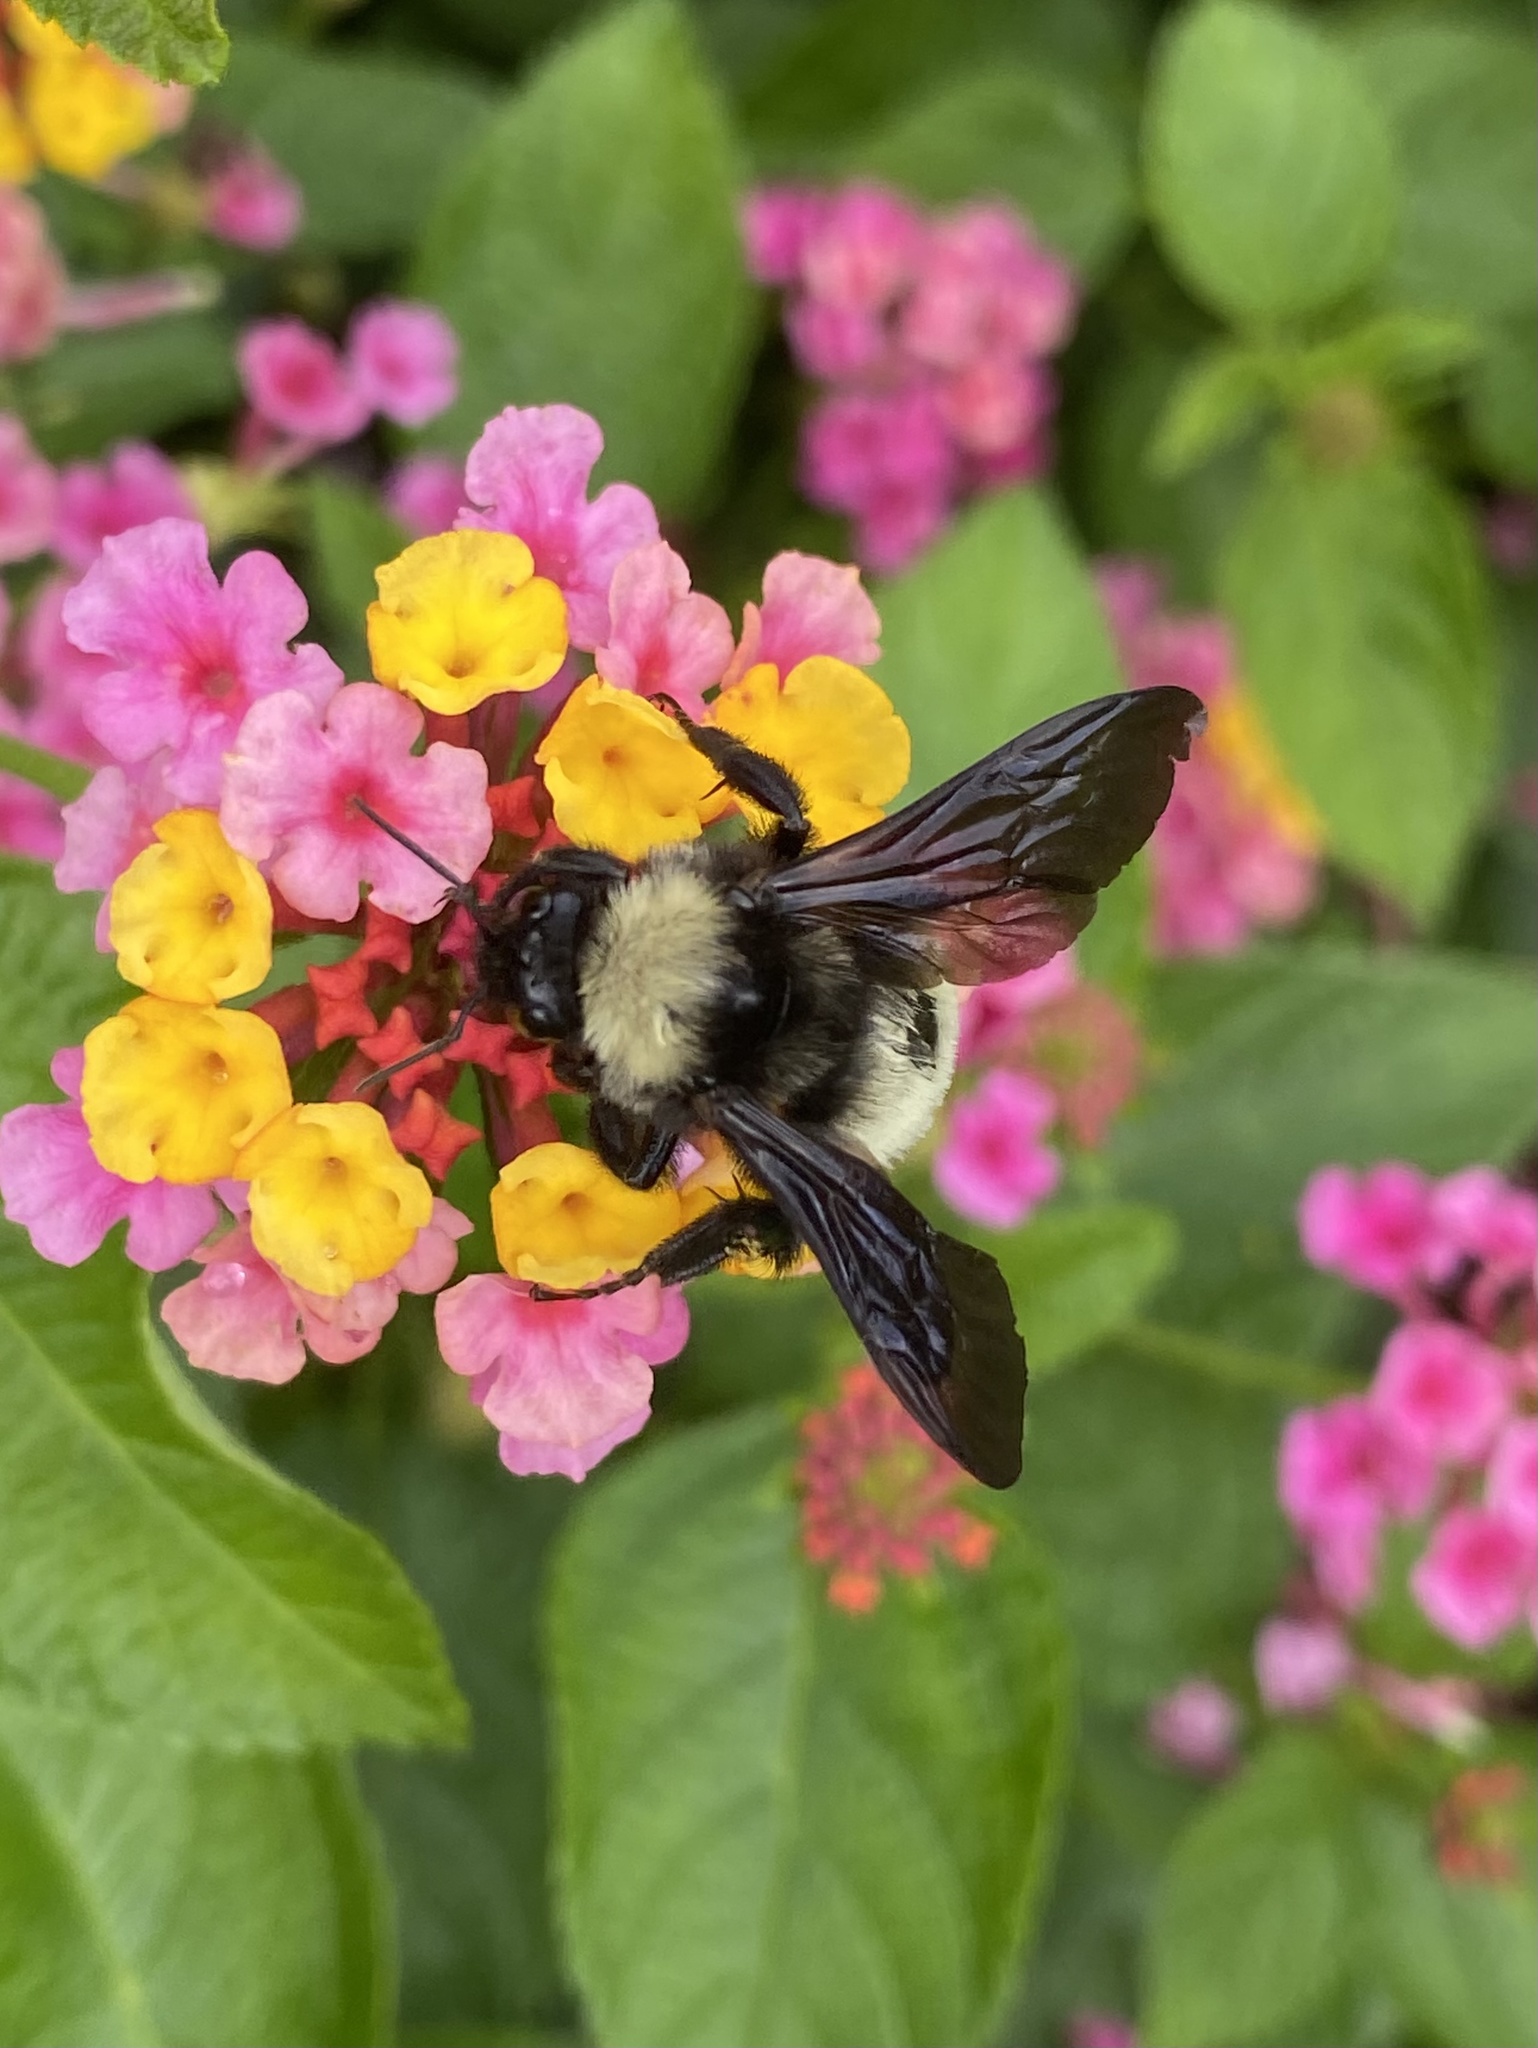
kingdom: Animalia
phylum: Arthropoda
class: Insecta
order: Hymenoptera
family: Apidae
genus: Bombus
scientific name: Bombus pensylvanicus
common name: Bumble bee
